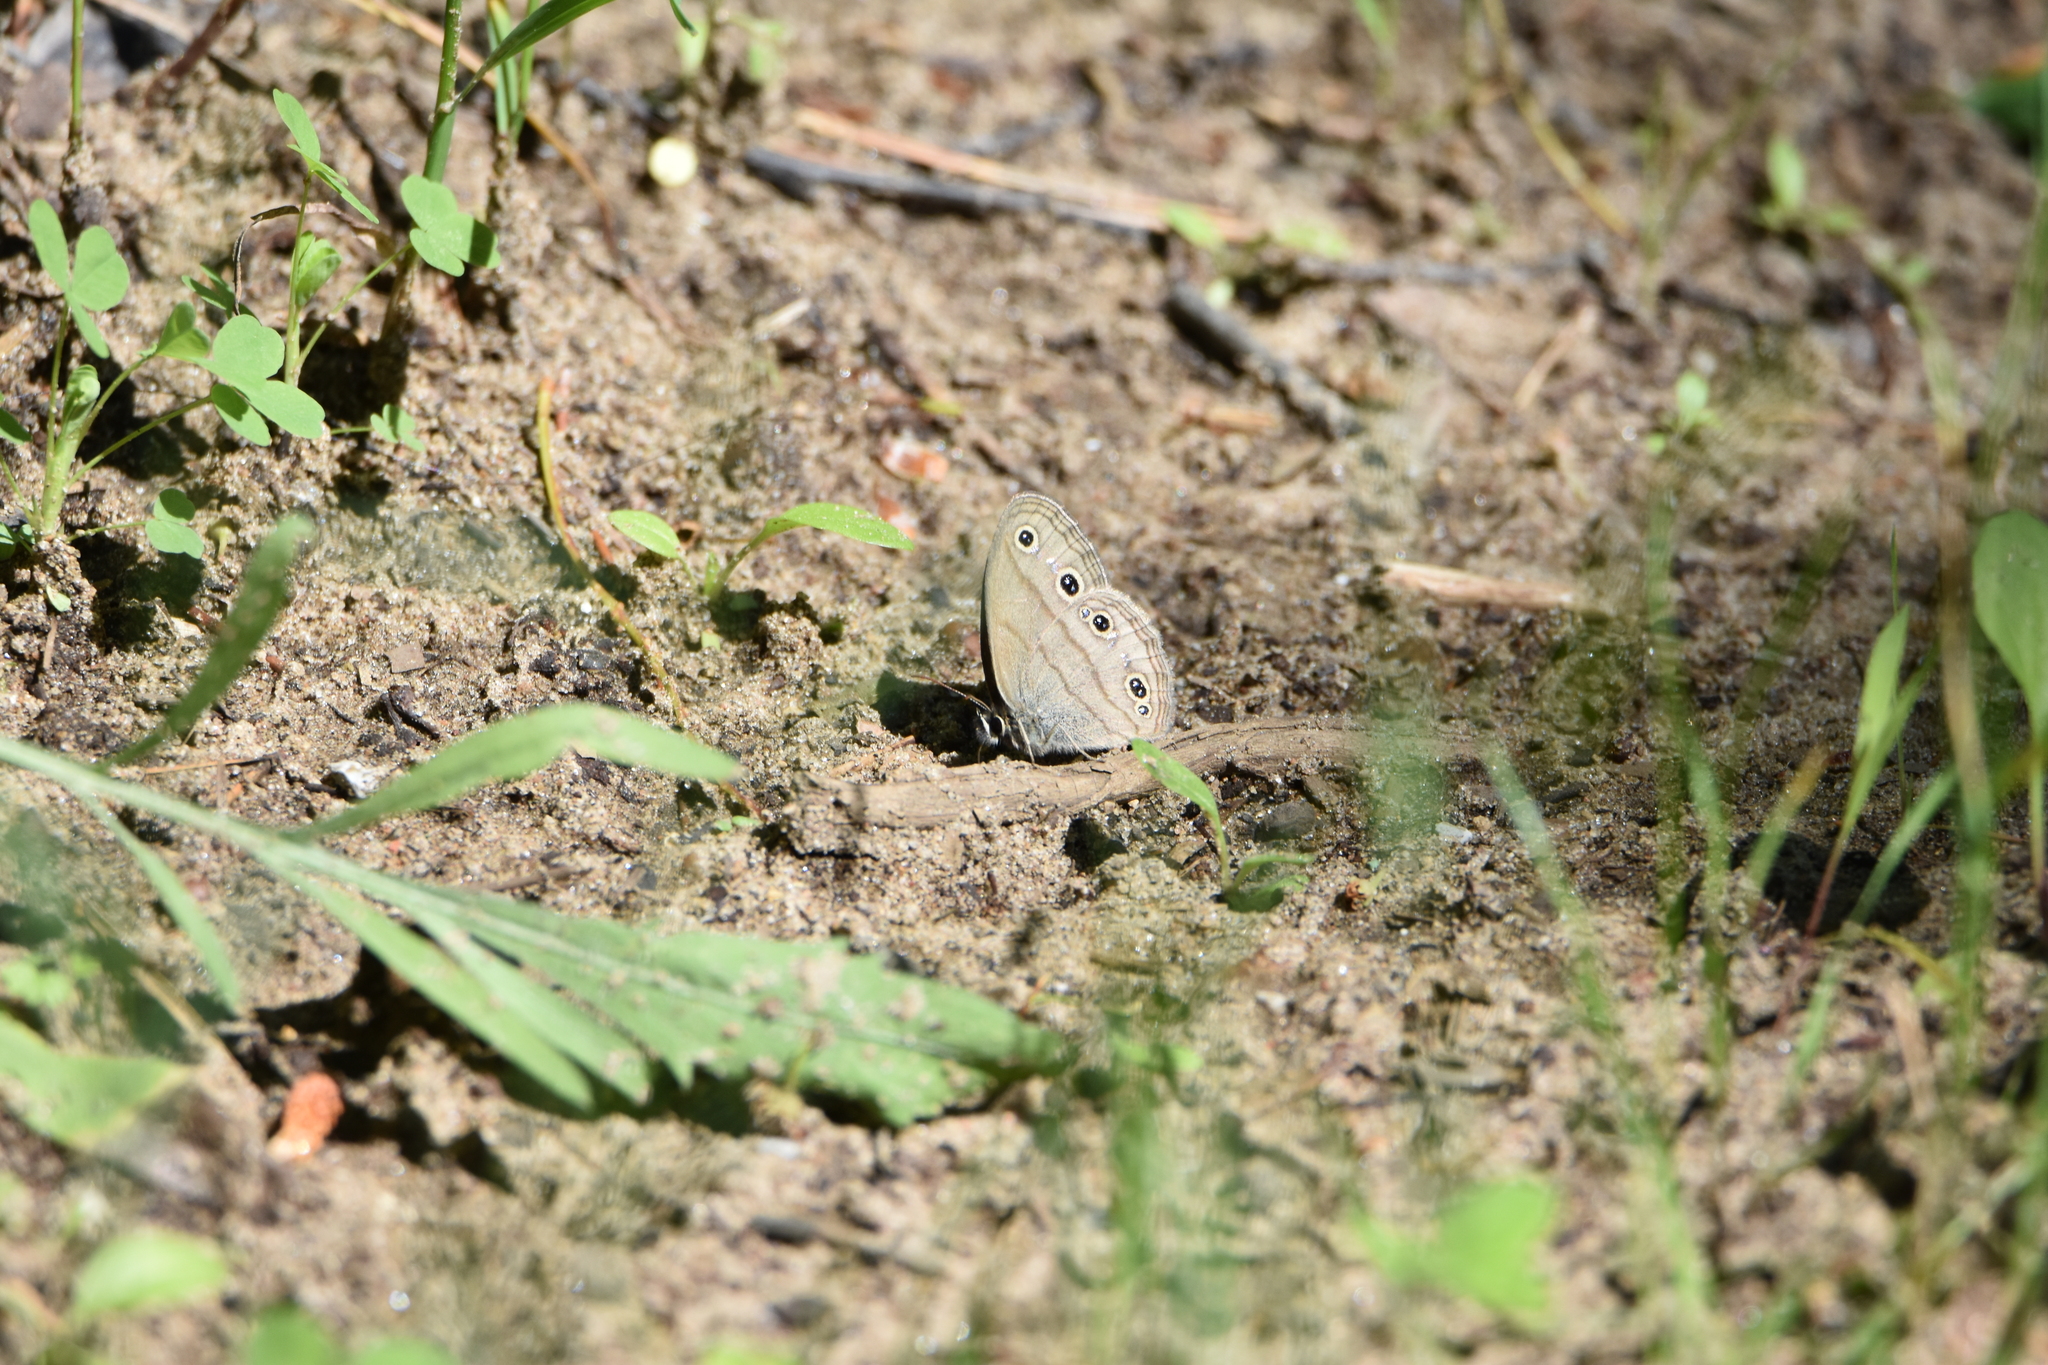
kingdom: Animalia
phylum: Arthropoda
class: Insecta
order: Lepidoptera
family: Nymphalidae
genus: Euptychia
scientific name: Euptychia cymela
